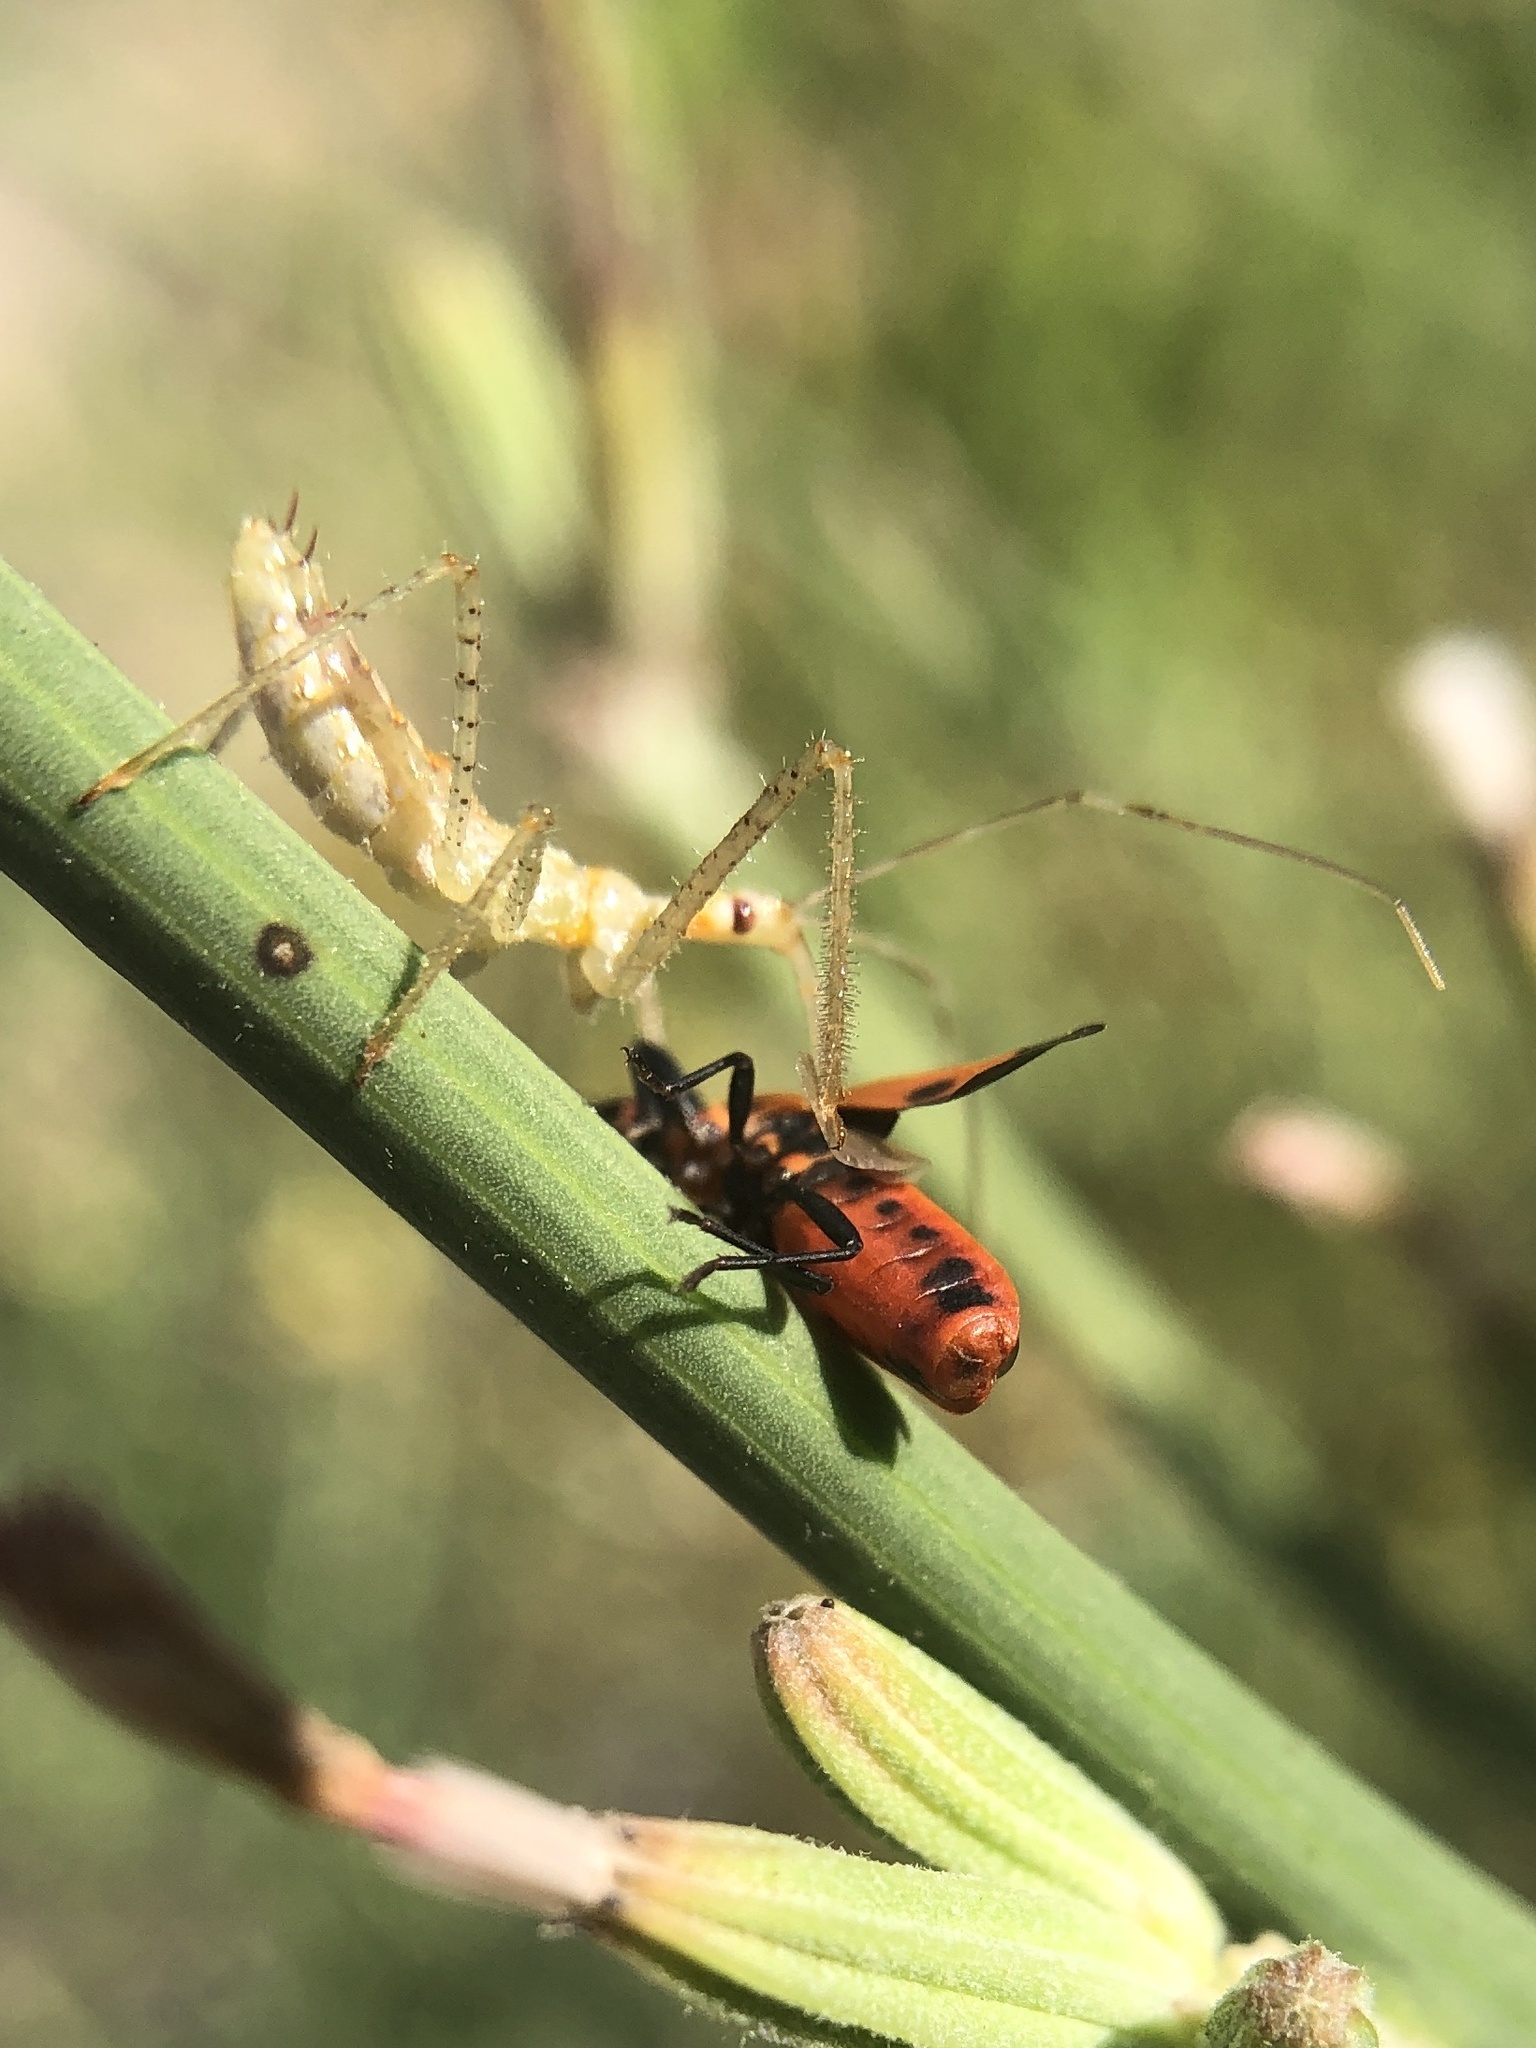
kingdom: Animalia
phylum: Arthropoda
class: Insecta
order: Hemiptera
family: Reduviidae
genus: Zelus
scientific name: Zelus renardii
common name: Assassin bug
